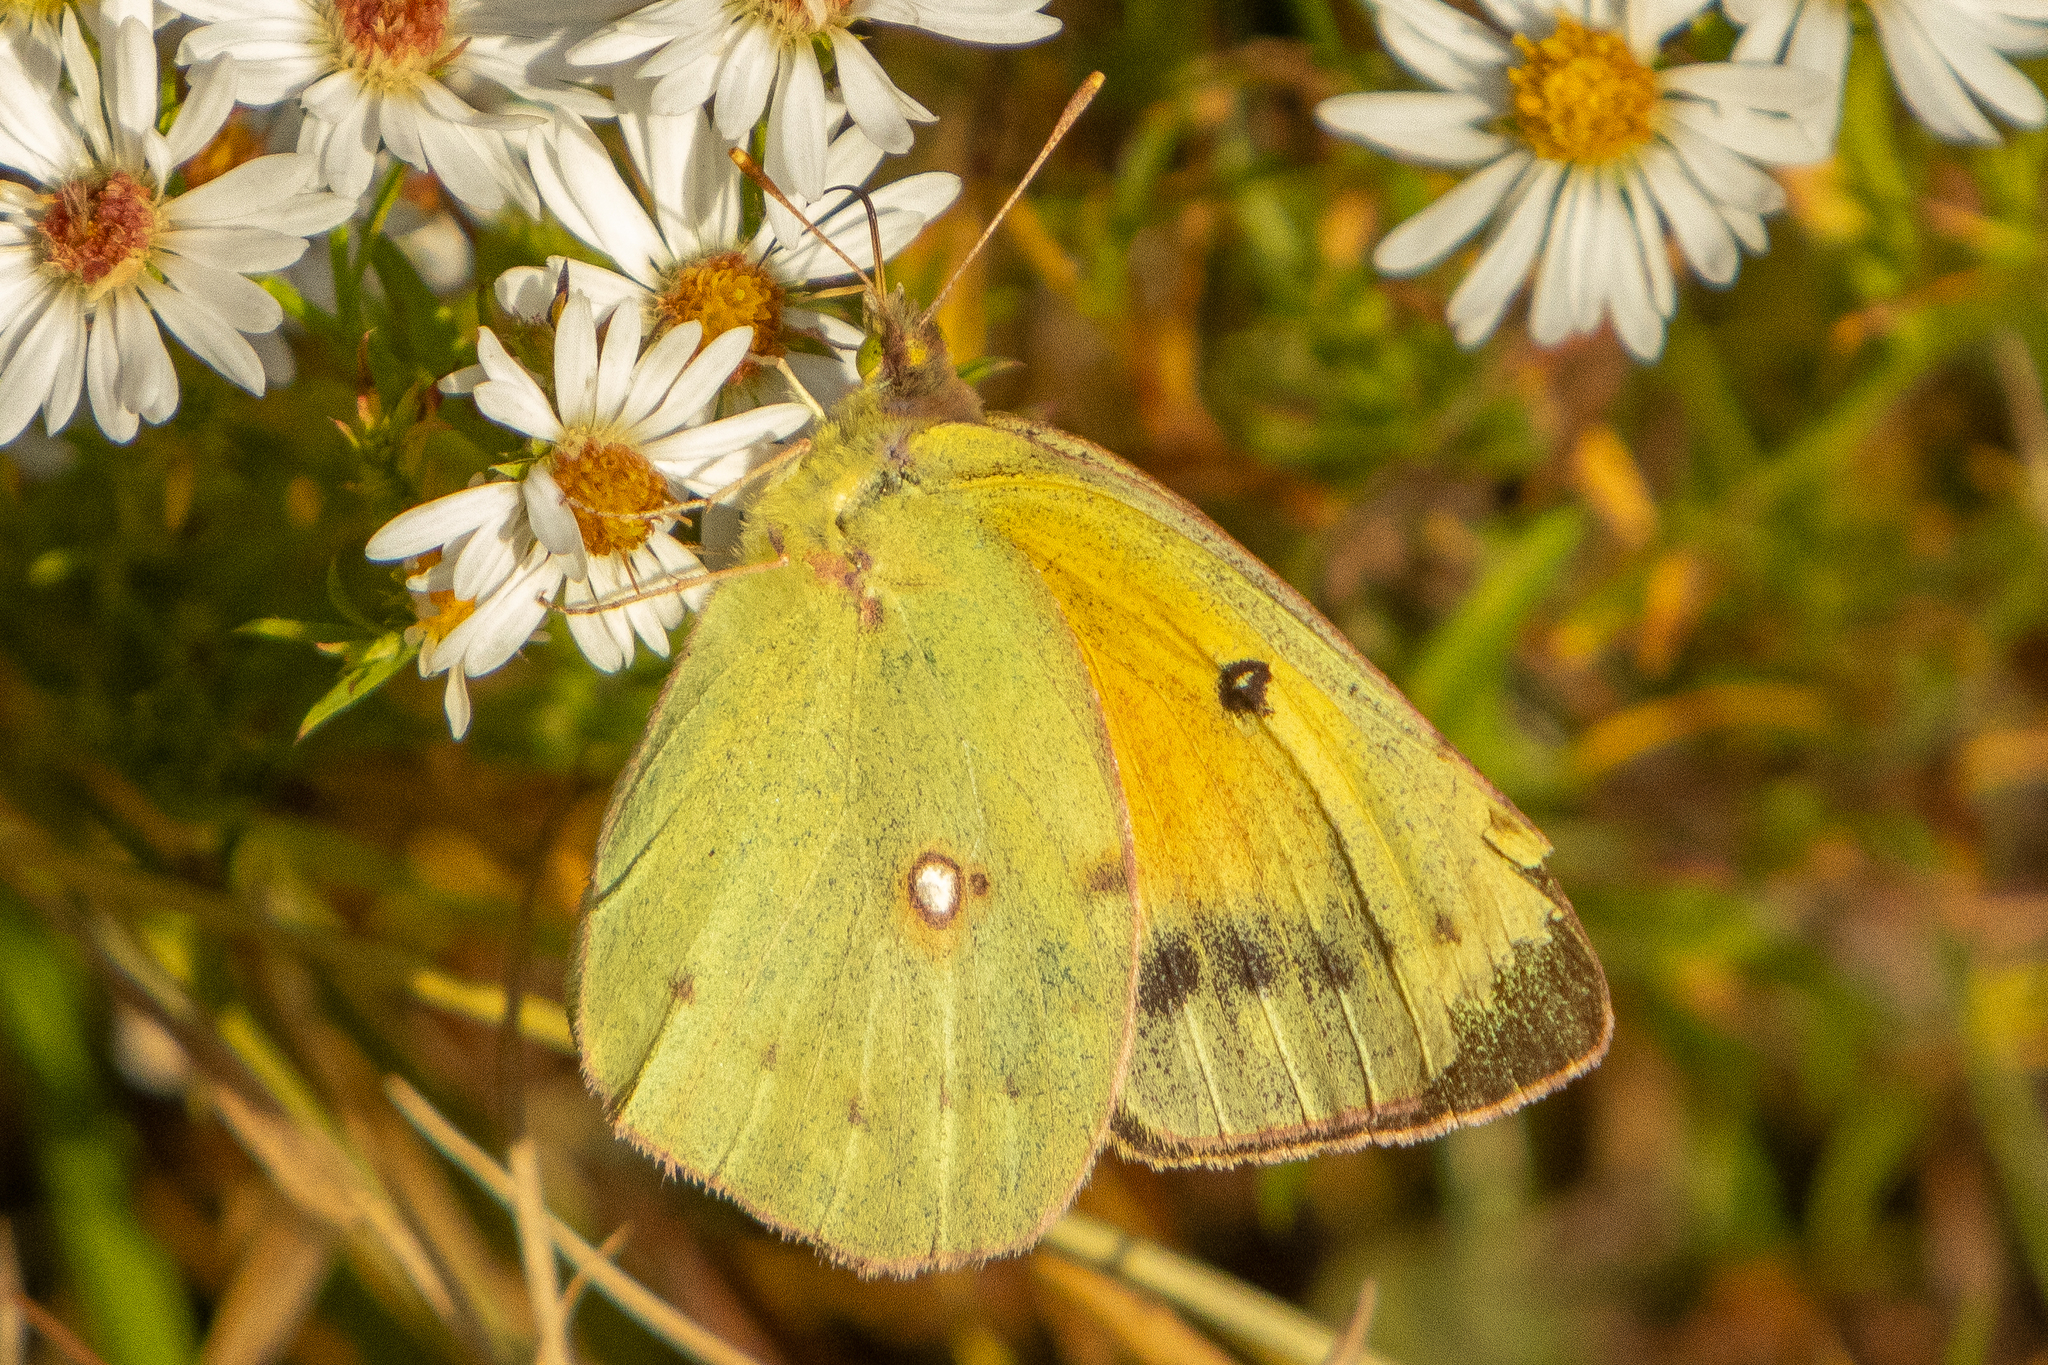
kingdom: Animalia
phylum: Arthropoda
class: Insecta
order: Lepidoptera
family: Pieridae
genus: Colias
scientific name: Colias eurytheme
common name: Alfalfa butterfly
